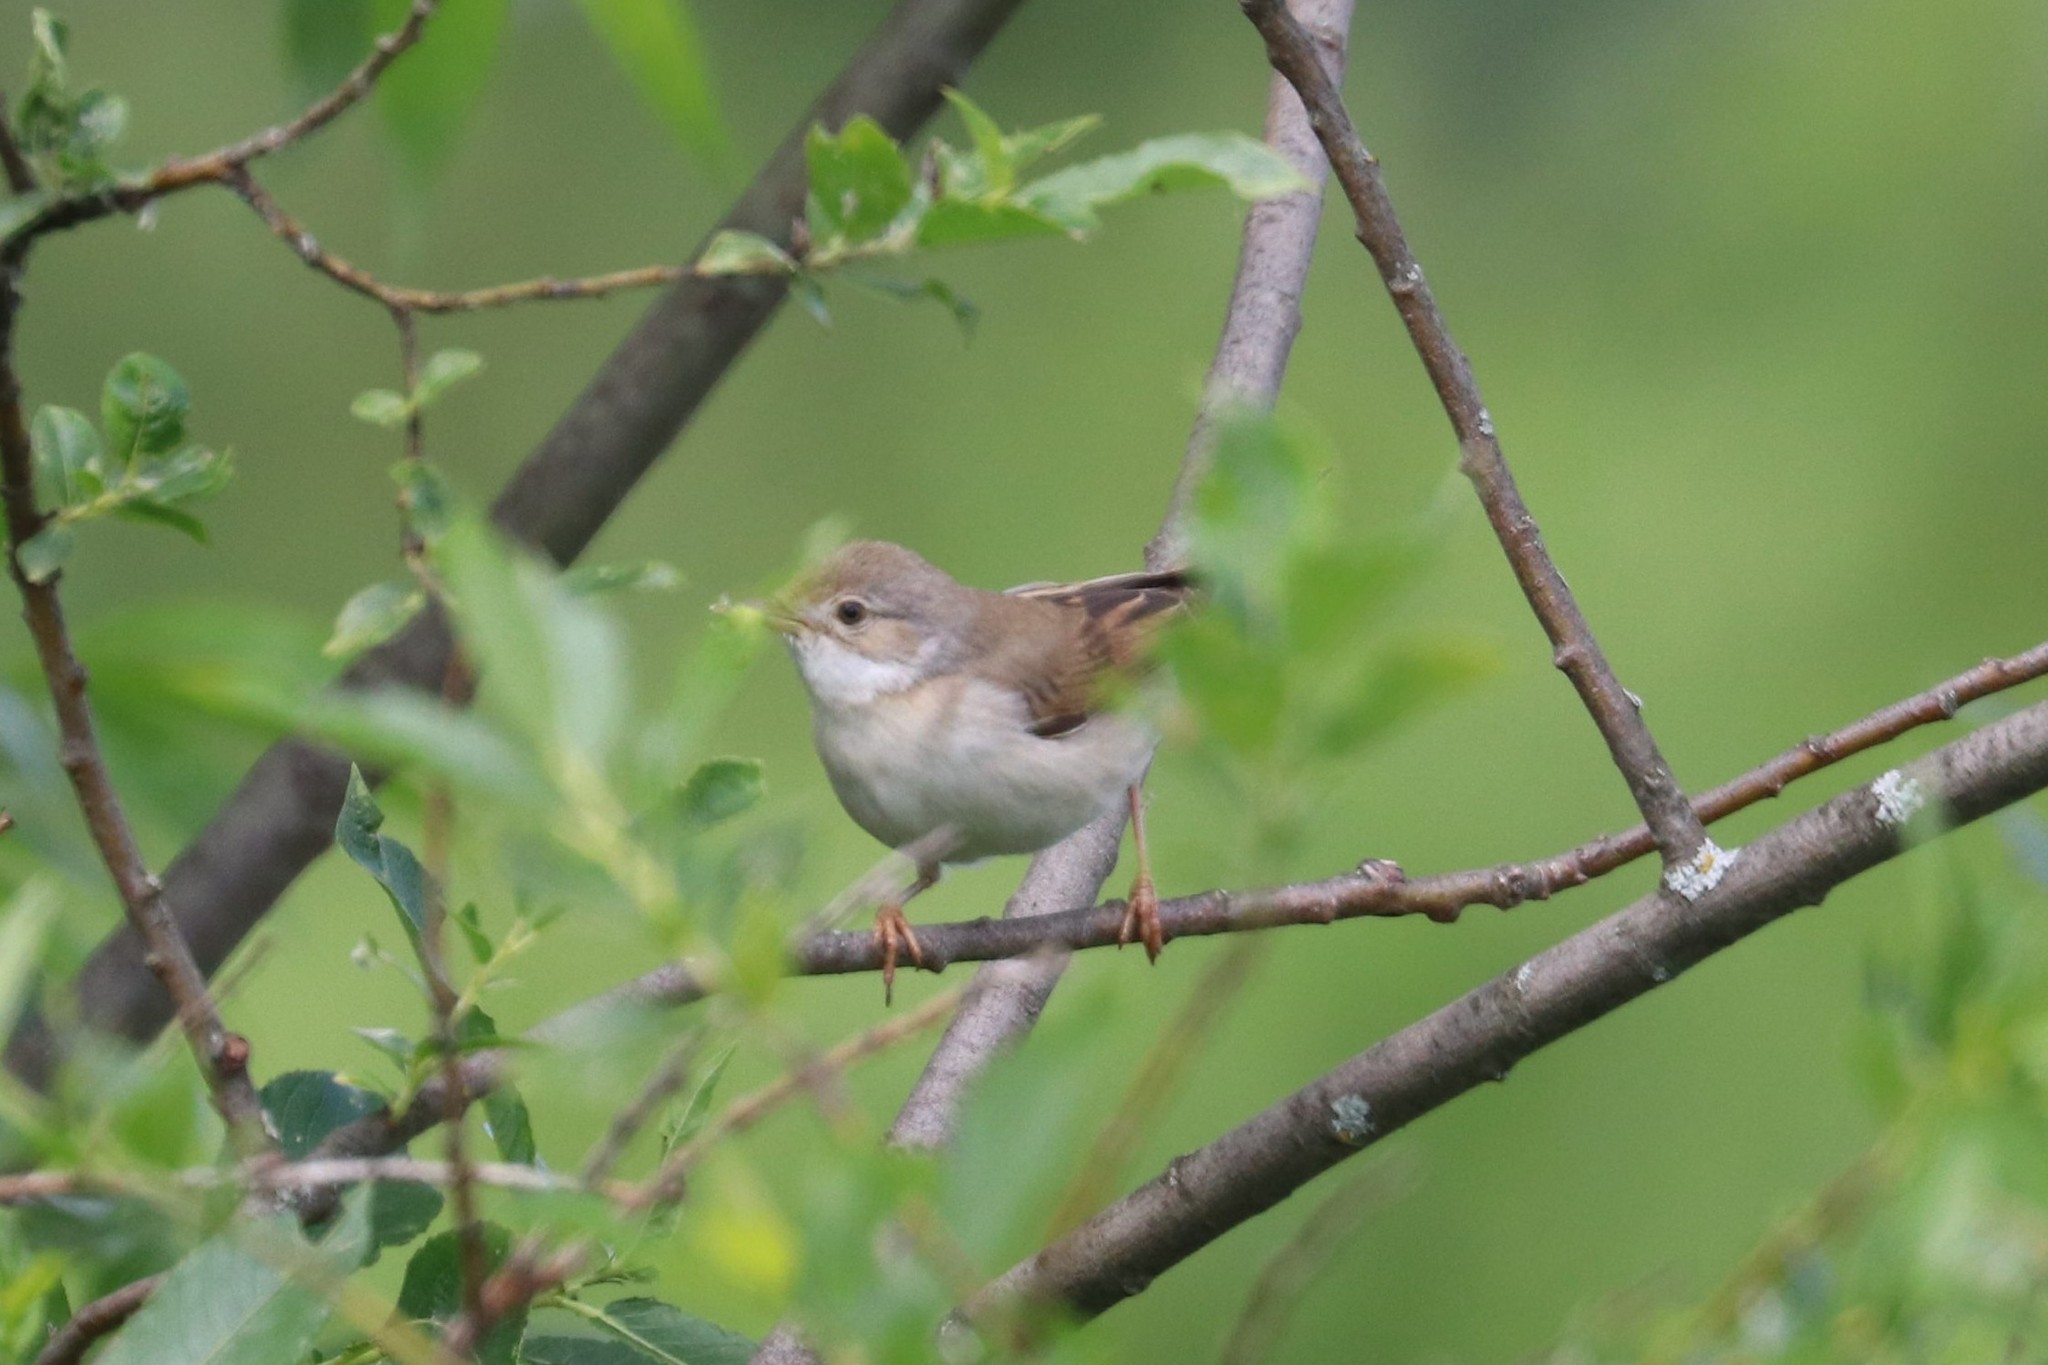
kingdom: Animalia
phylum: Chordata
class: Aves
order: Passeriformes
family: Sylviidae
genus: Sylvia
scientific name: Sylvia communis
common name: Common whitethroat
